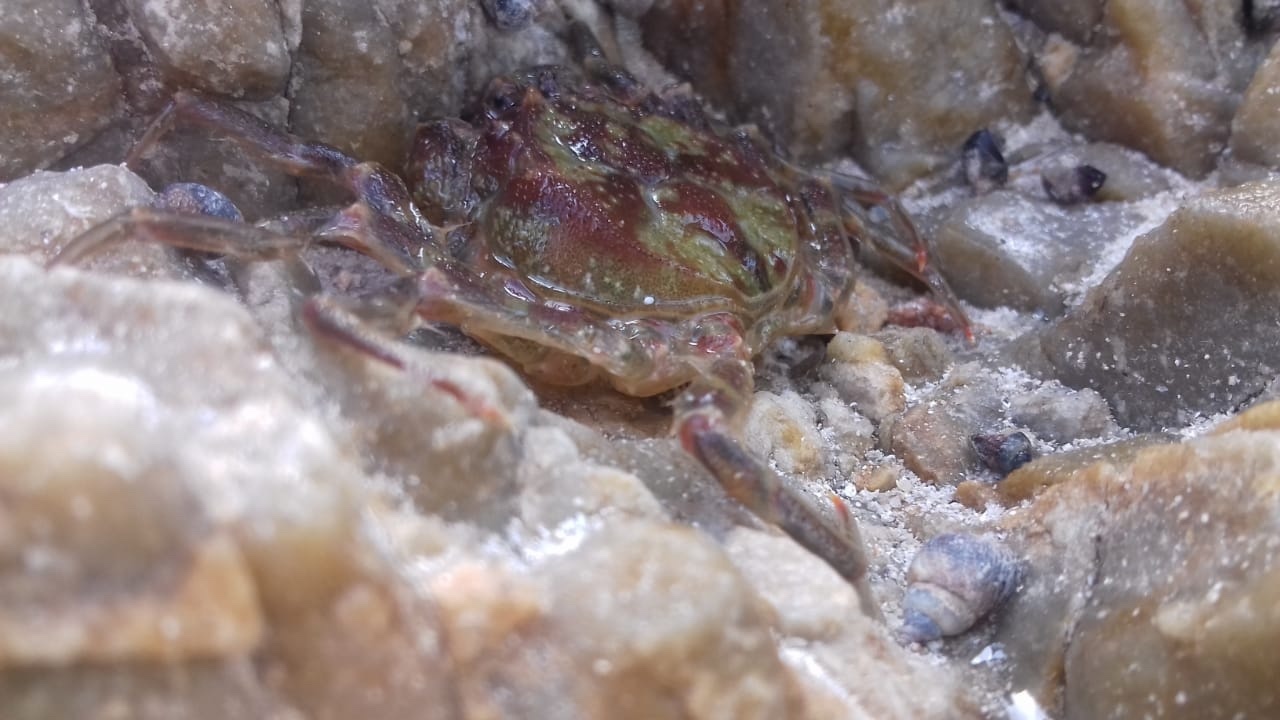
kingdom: Animalia
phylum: Arthropoda
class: Malacostraca
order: Decapoda
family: Hymenosomatidae
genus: Hymenosoma
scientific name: Hymenosoma orbiculare
